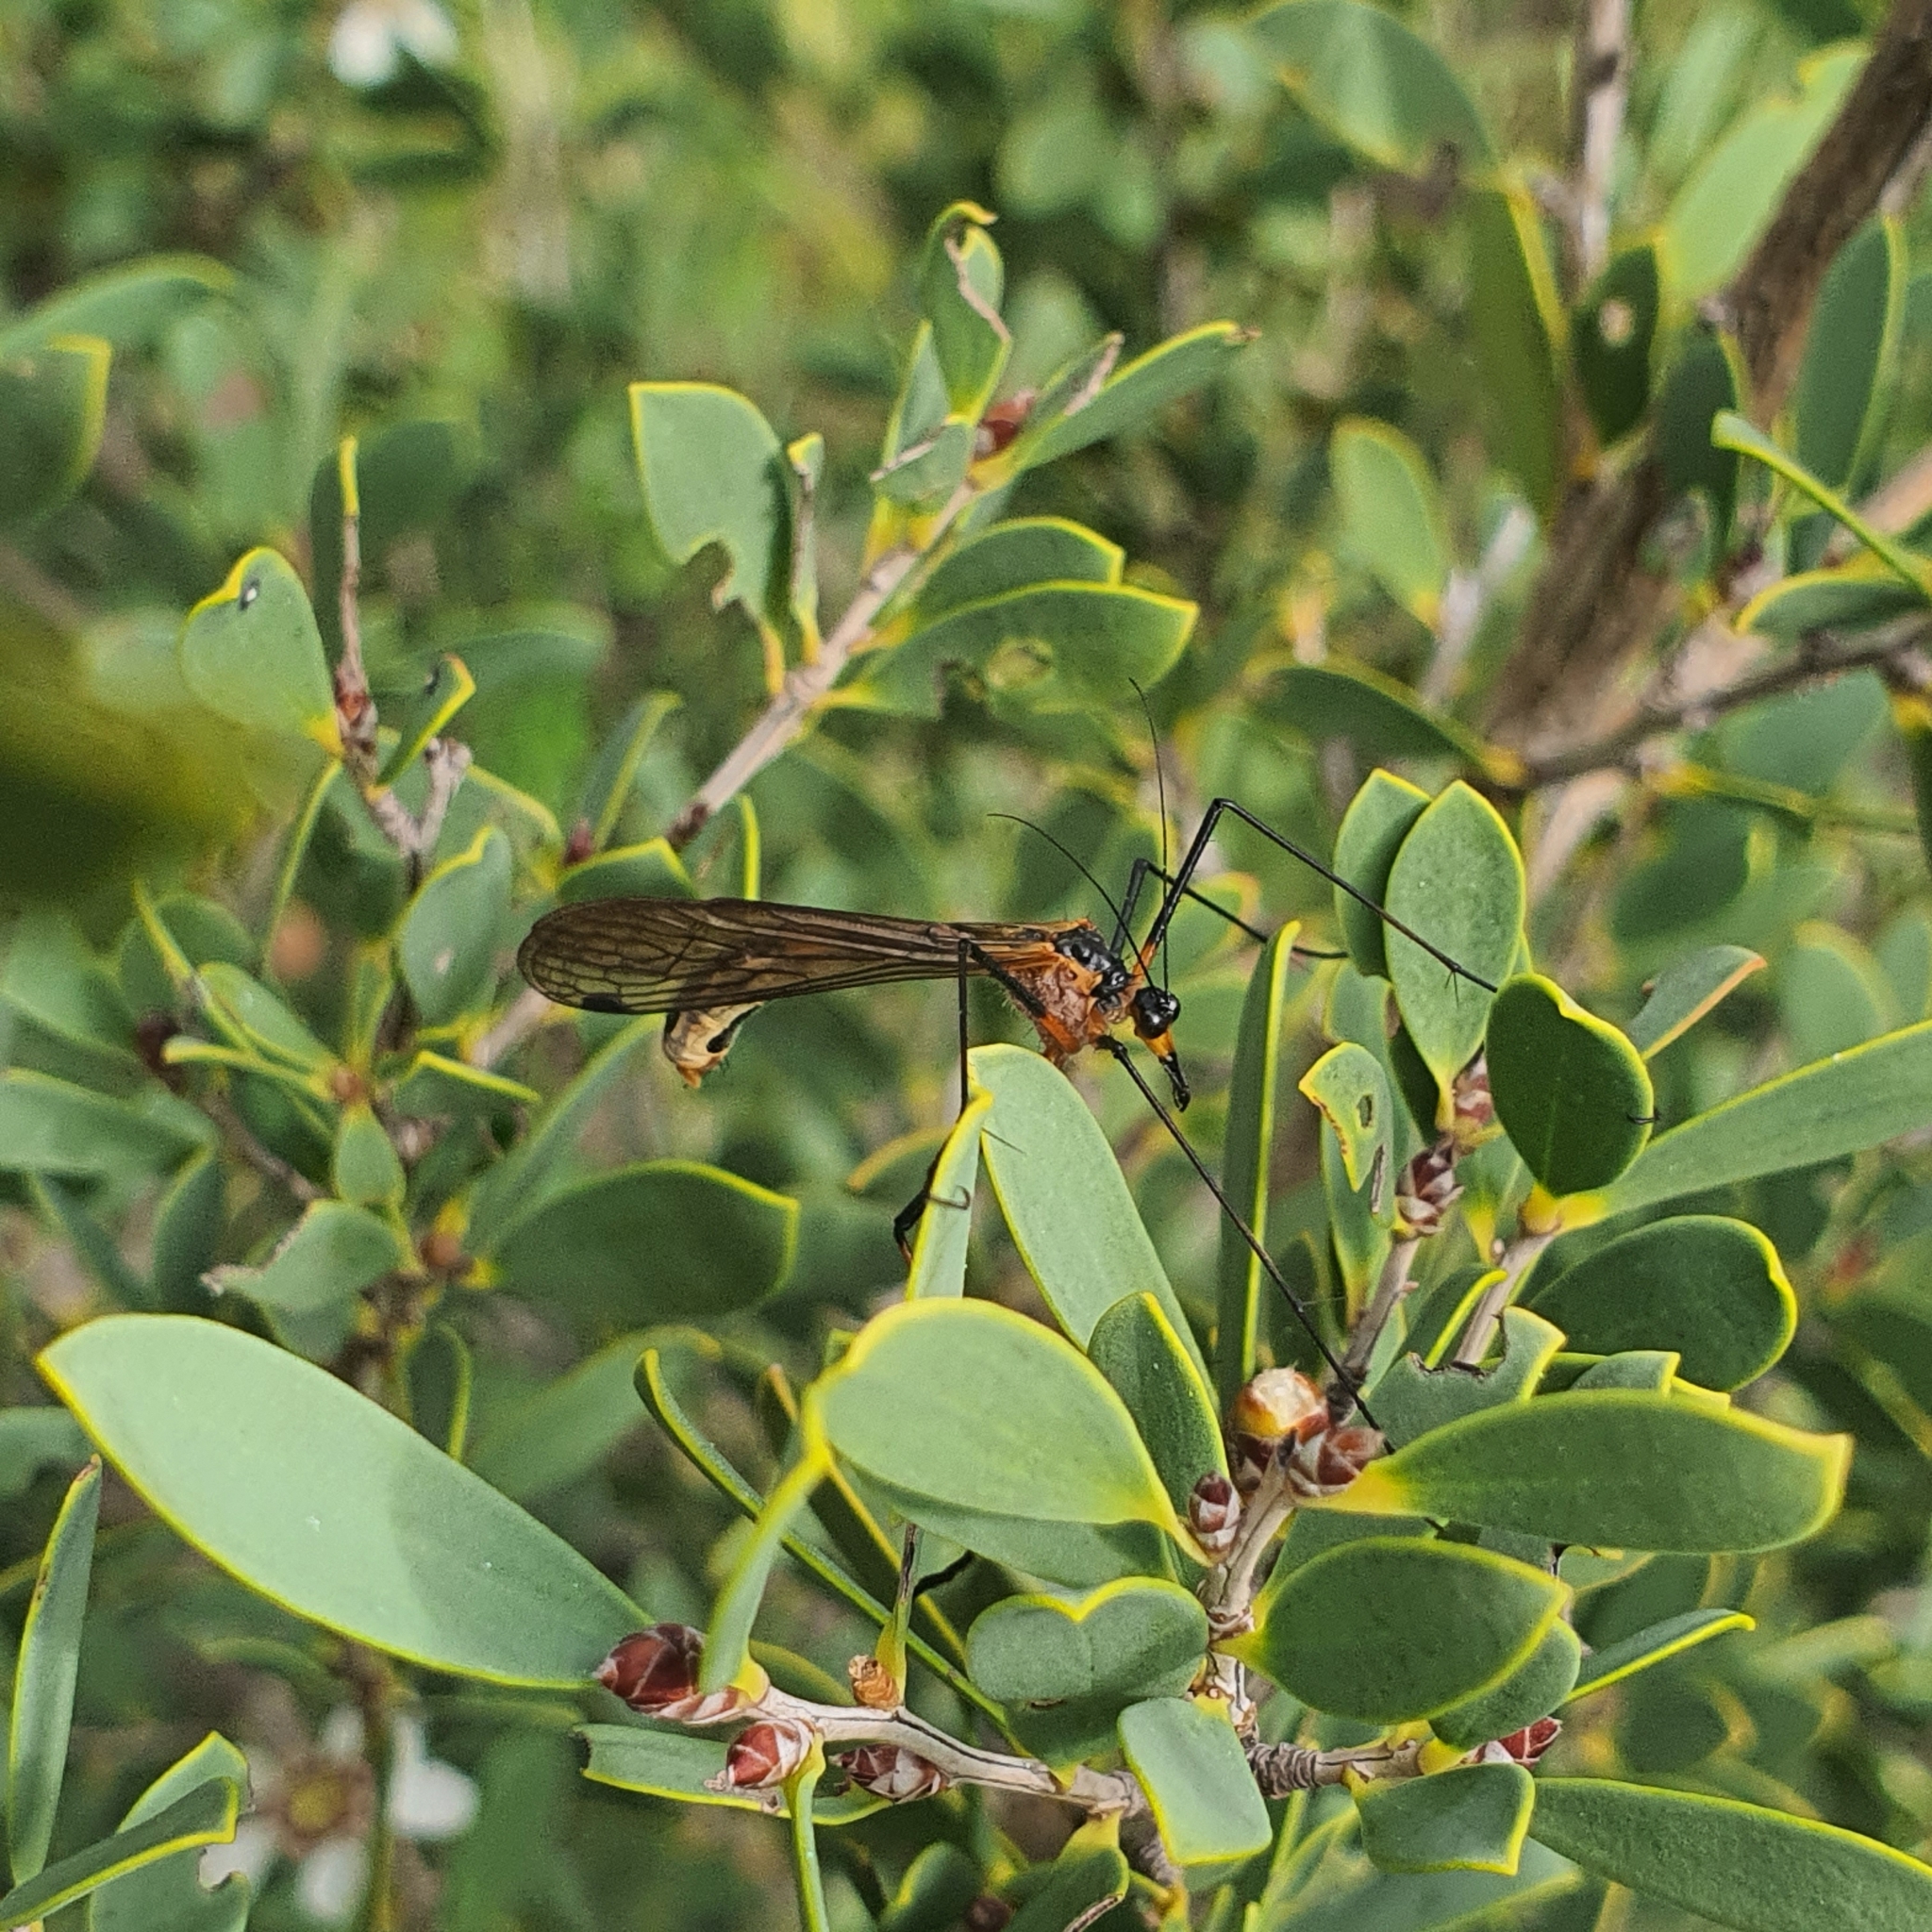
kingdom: Animalia
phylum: Arthropoda
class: Insecta
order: Mecoptera
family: Bittacidae
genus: Harpobittacus
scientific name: Harpobittacus similis
